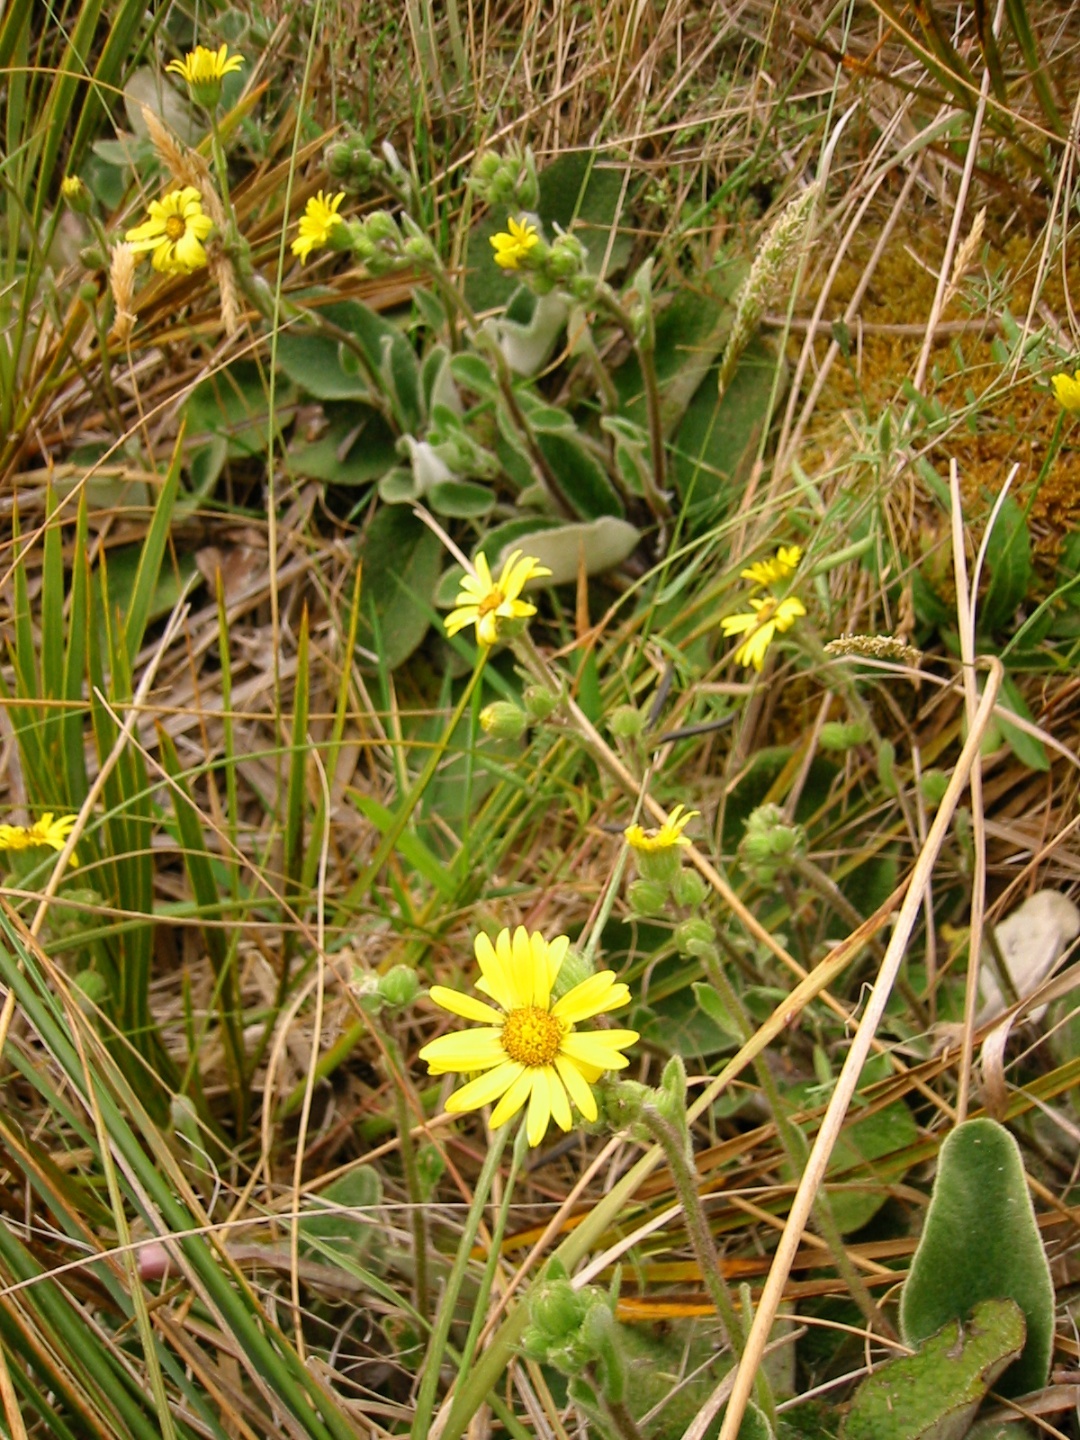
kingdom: Plantae
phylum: Tracheophyta
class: Magnoliopsida
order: Asterales
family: Asteraceae
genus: Brachyglottis
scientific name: Brachyglottis lagopus
